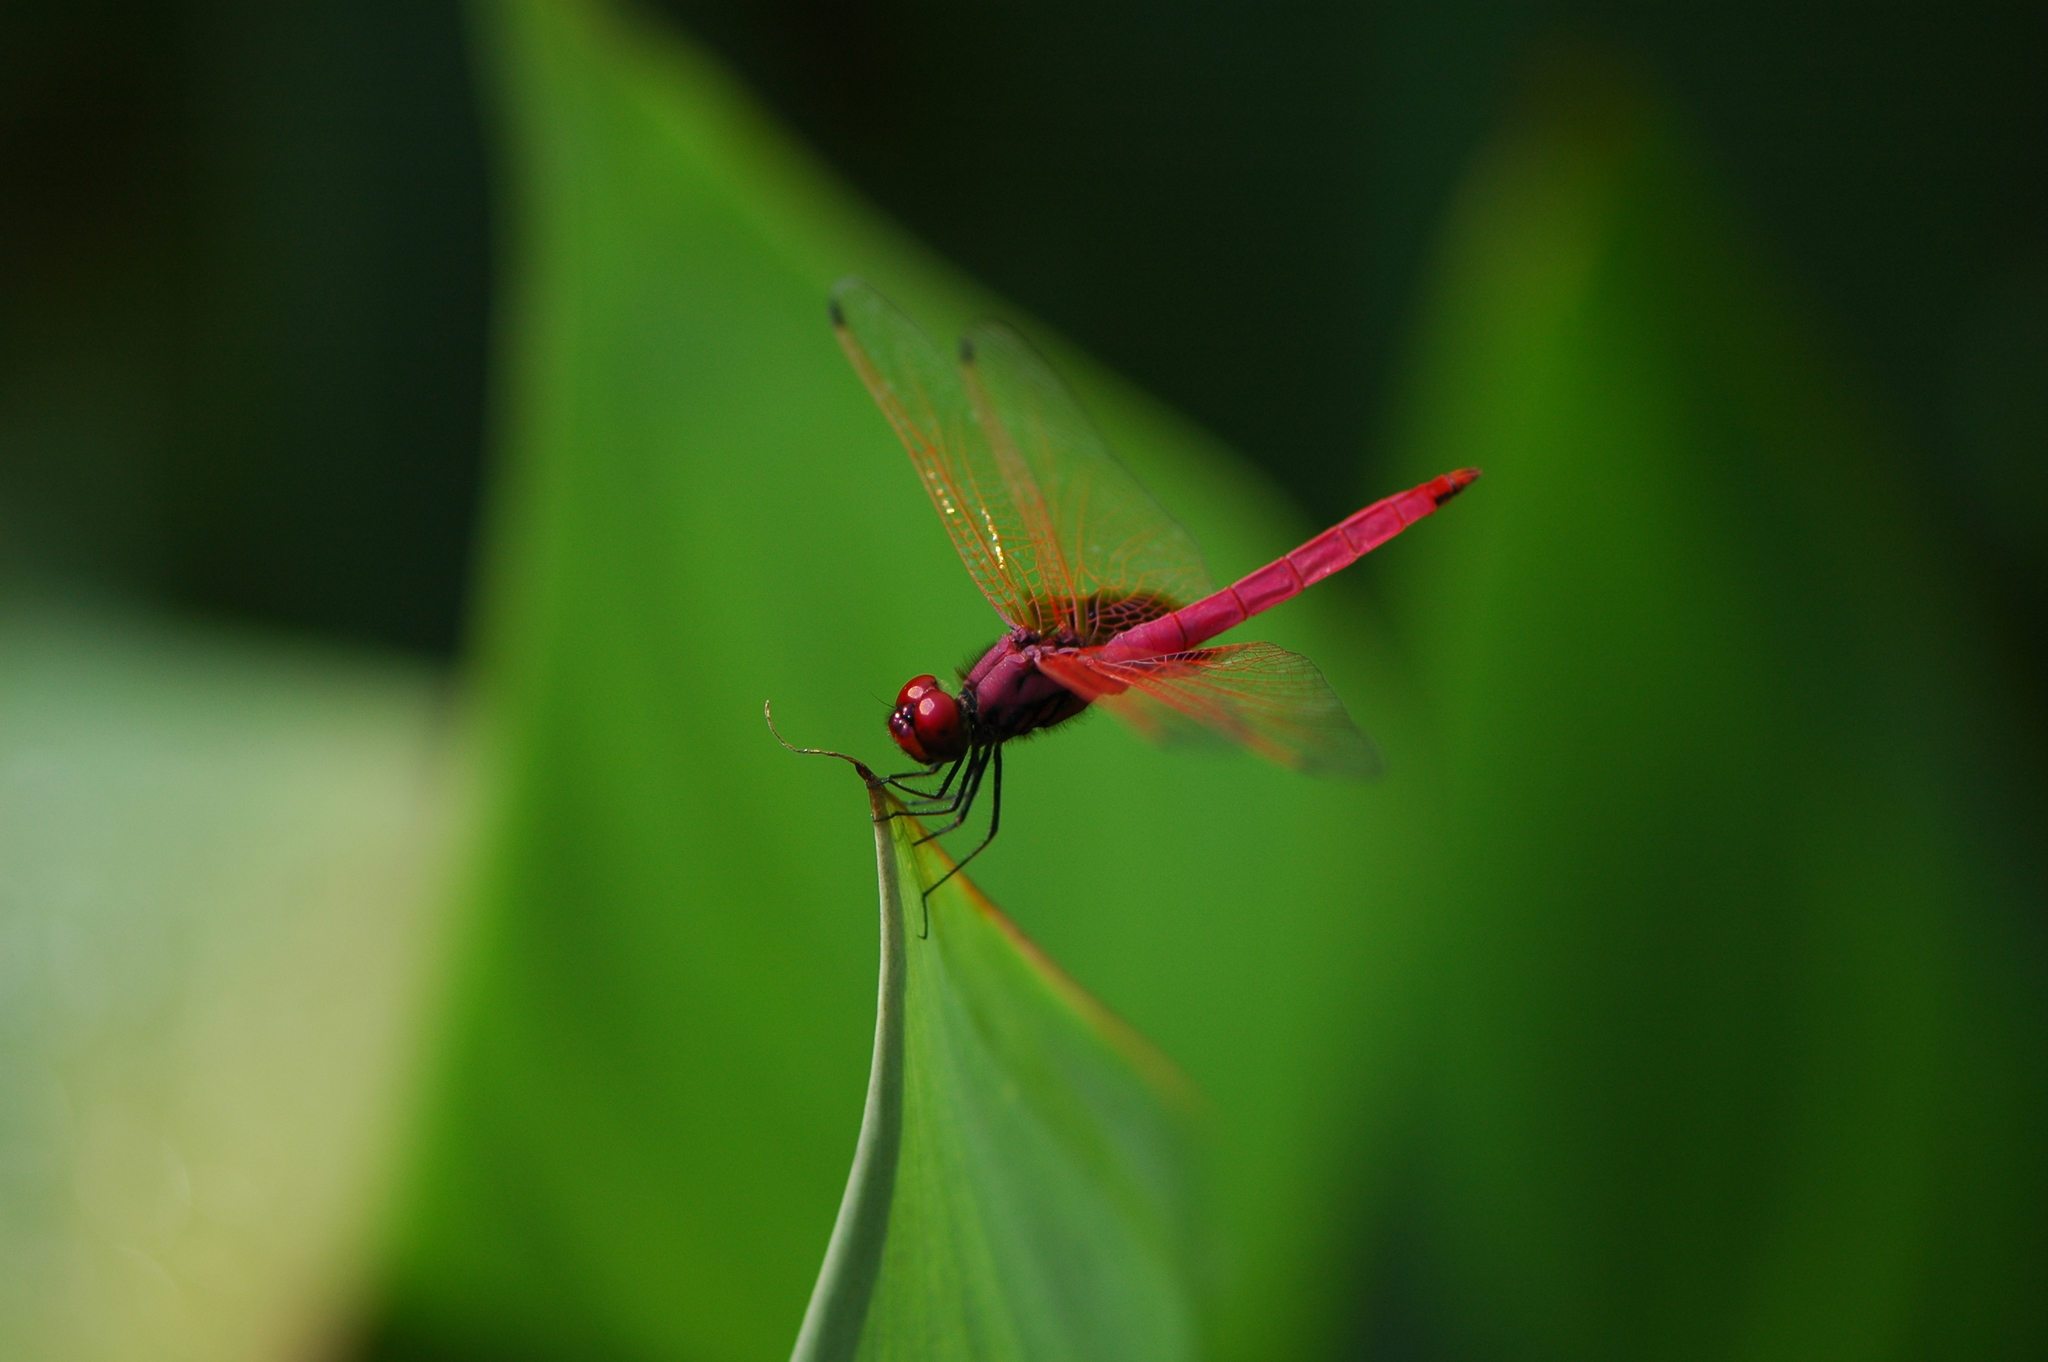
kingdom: Animalia
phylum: Arthropoda
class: Insecta
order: Odonata
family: Libellulidae
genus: Trithemis
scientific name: Trithemis aurora
